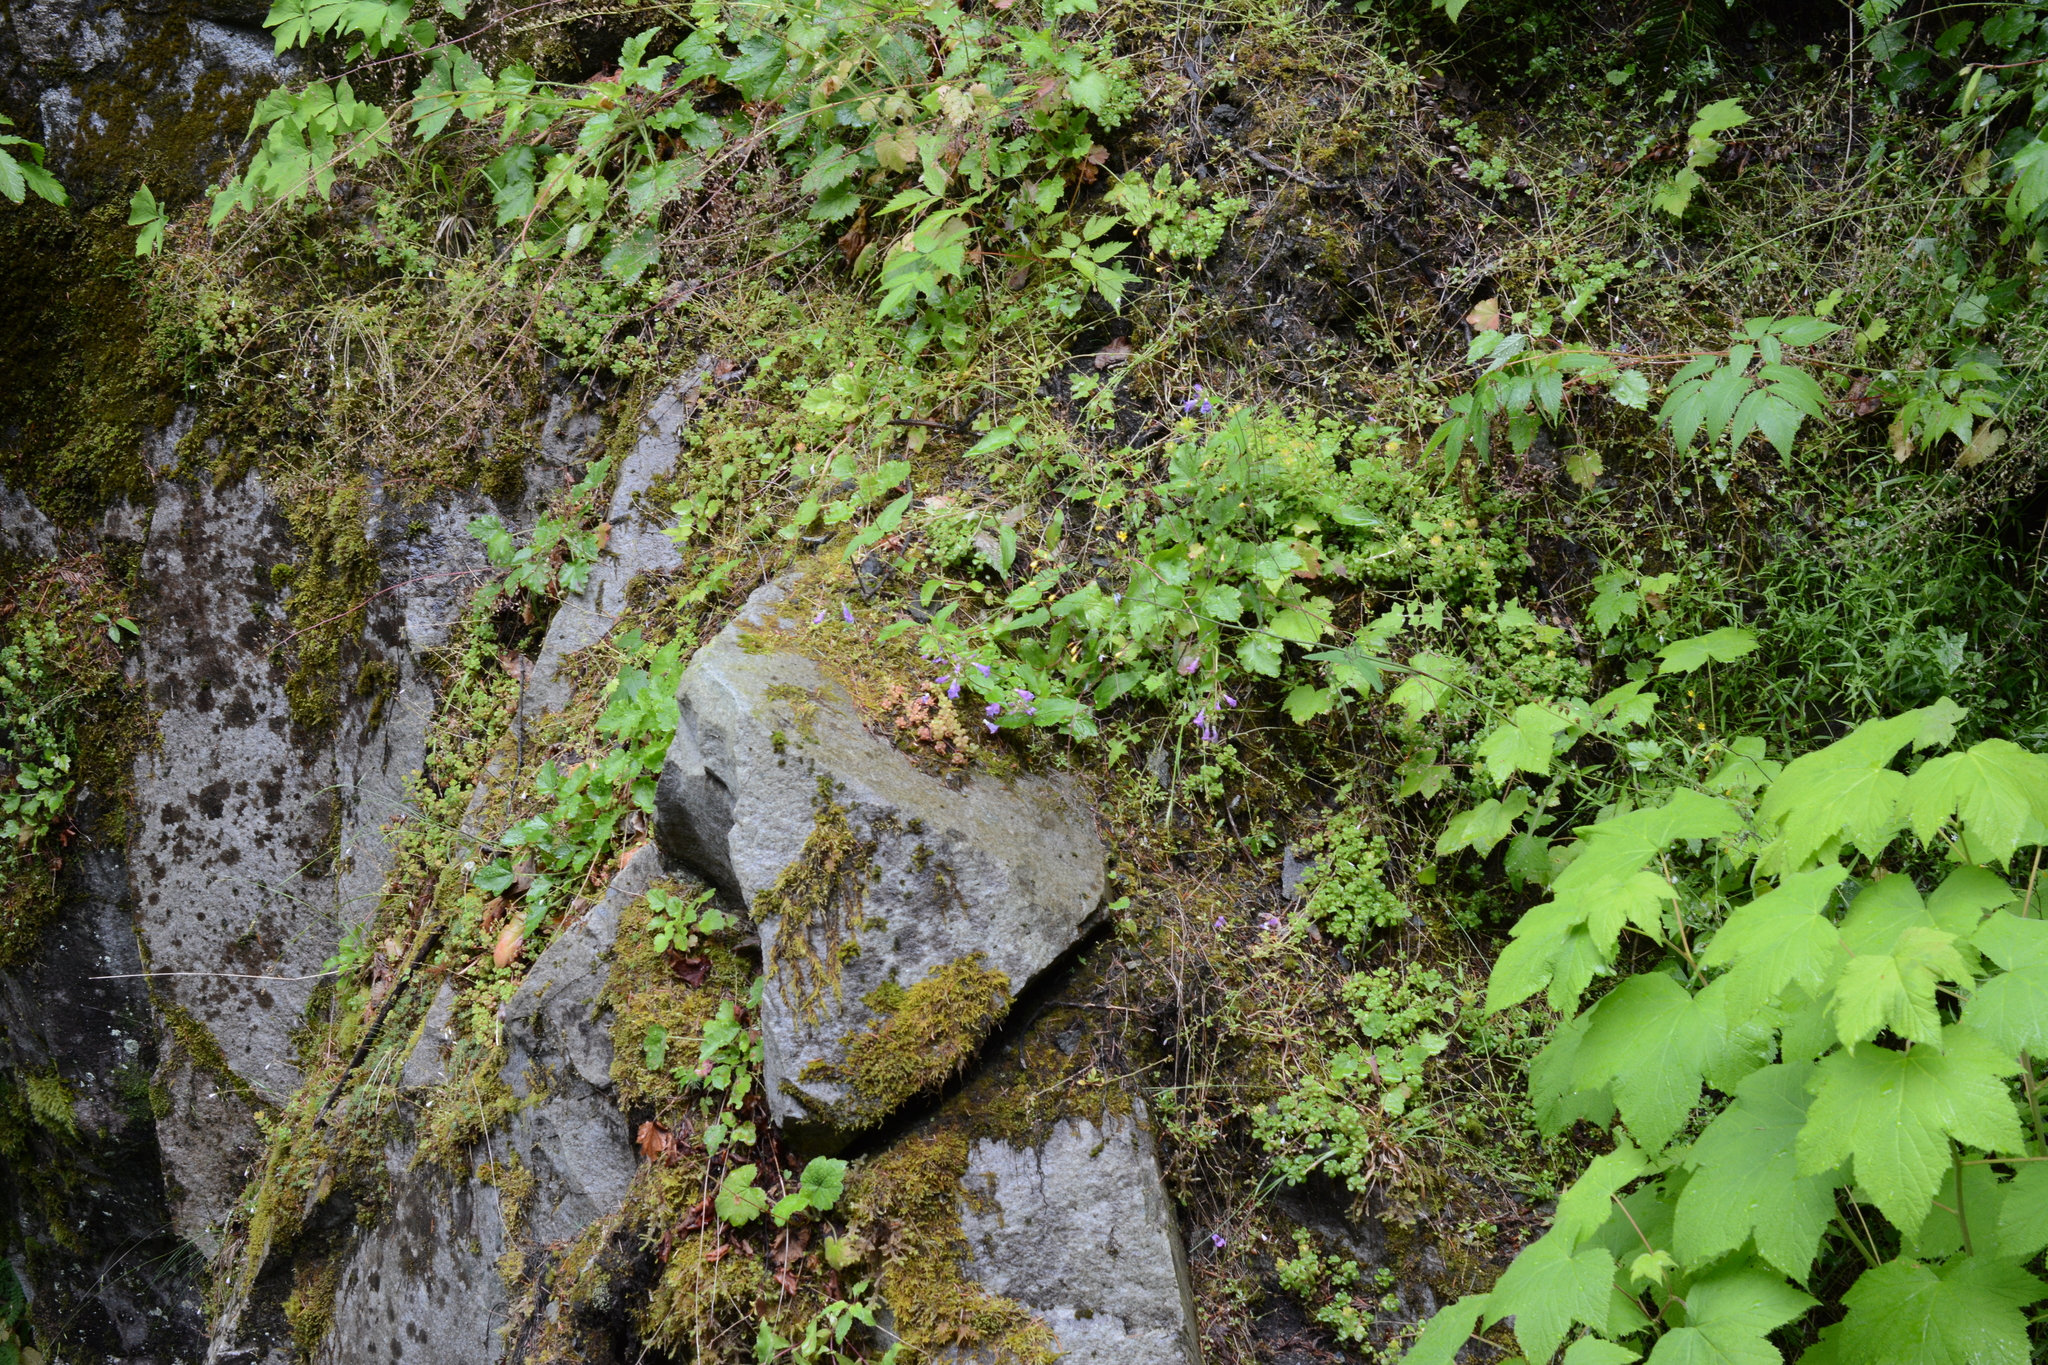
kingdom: Plantae
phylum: Tracheophyta
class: Magnoliopsida
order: Lamiales
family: Plantaginaceae
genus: Penstemon
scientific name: Penstemon serrulatus
